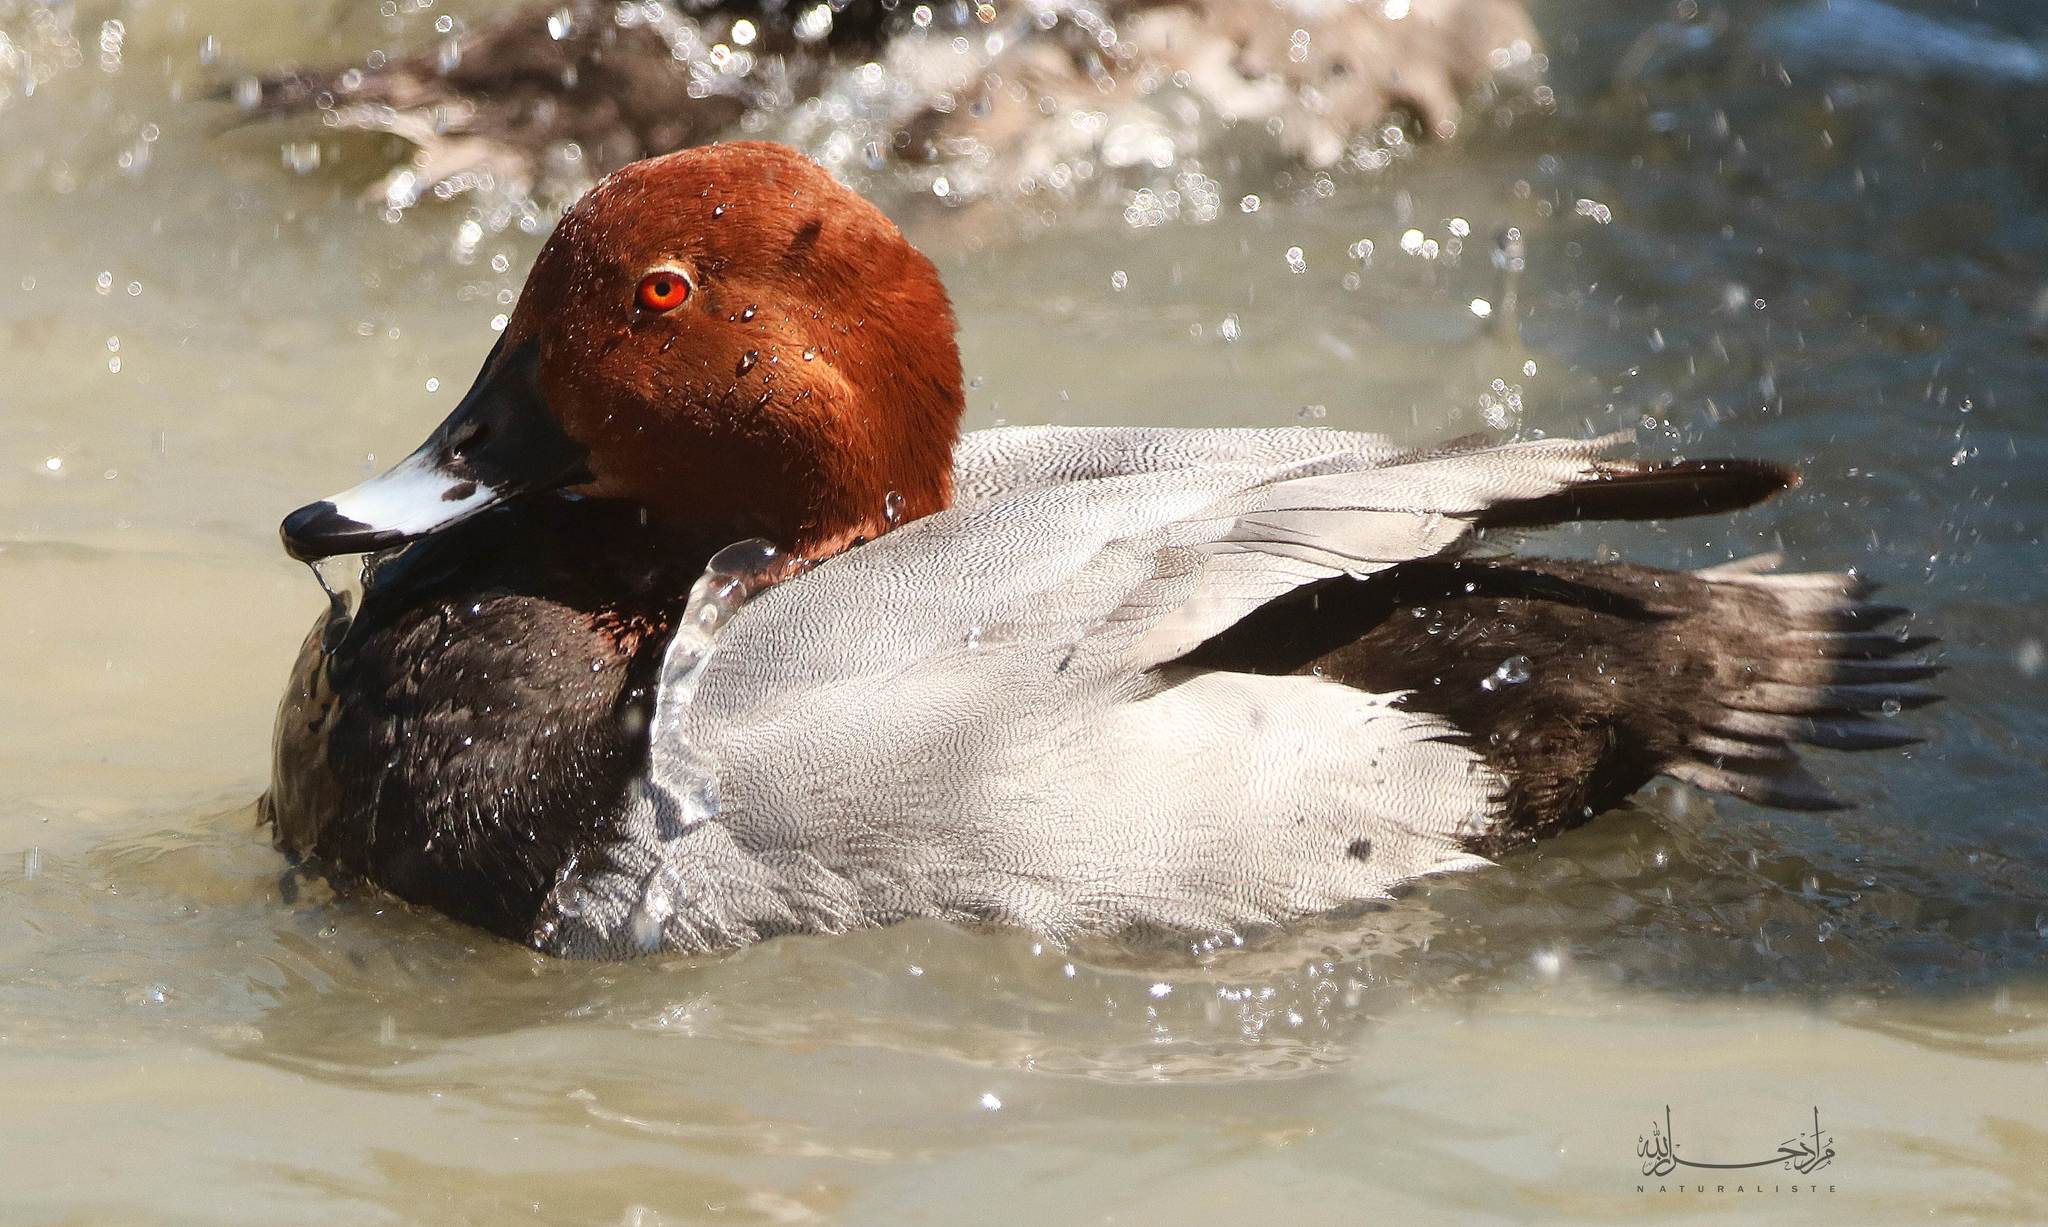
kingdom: Animalia
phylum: Chordata
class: Aves
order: Anseriformes
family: Anatidae
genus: Aythya
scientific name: Aythya ferina
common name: Common pochard
